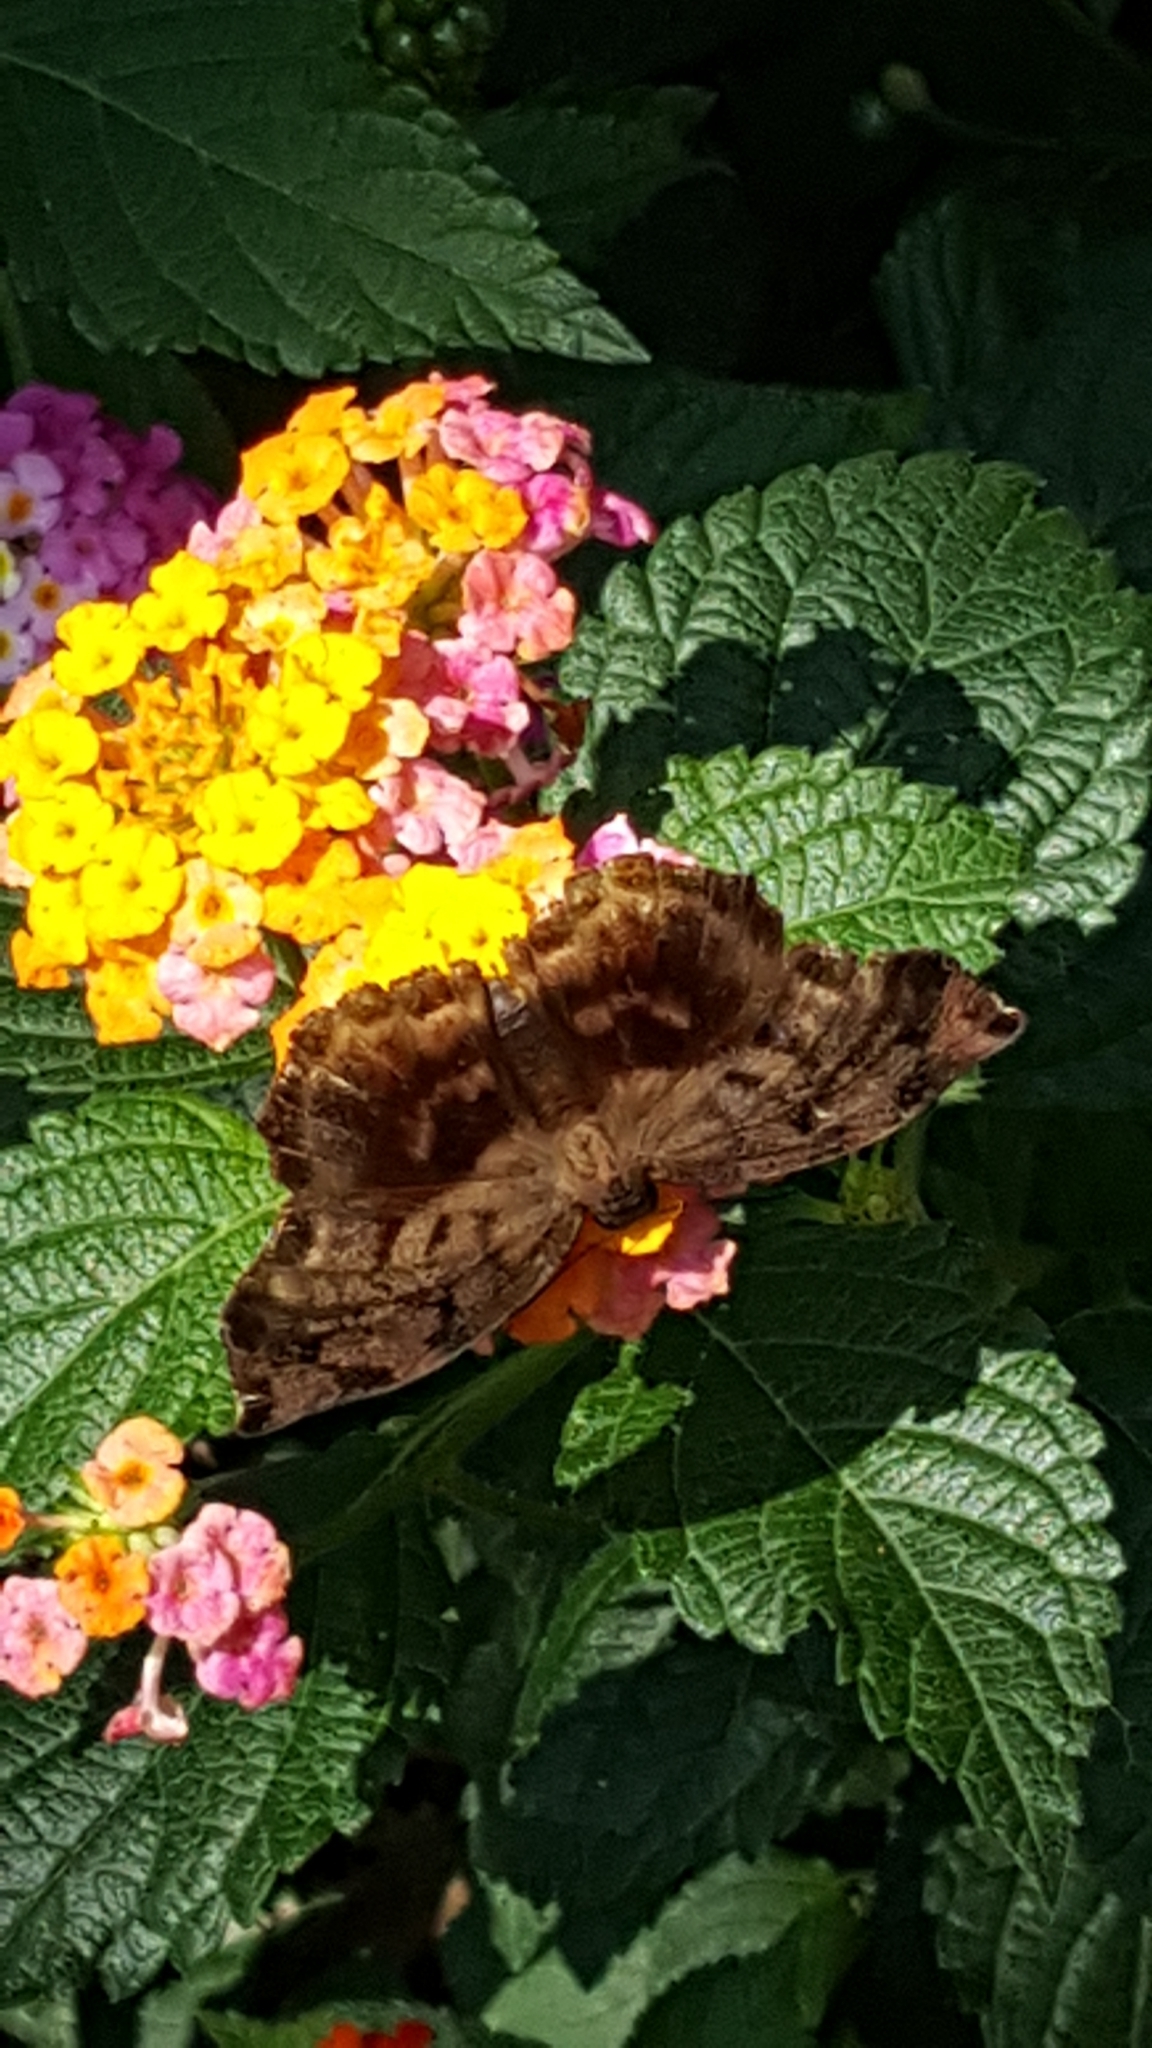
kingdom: Animalia
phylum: Arthropoda
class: Insecta
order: Lepidoptera
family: Hesperiidae
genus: Achlyodes
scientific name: Achlyodes busirus
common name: Giant sicklewing
